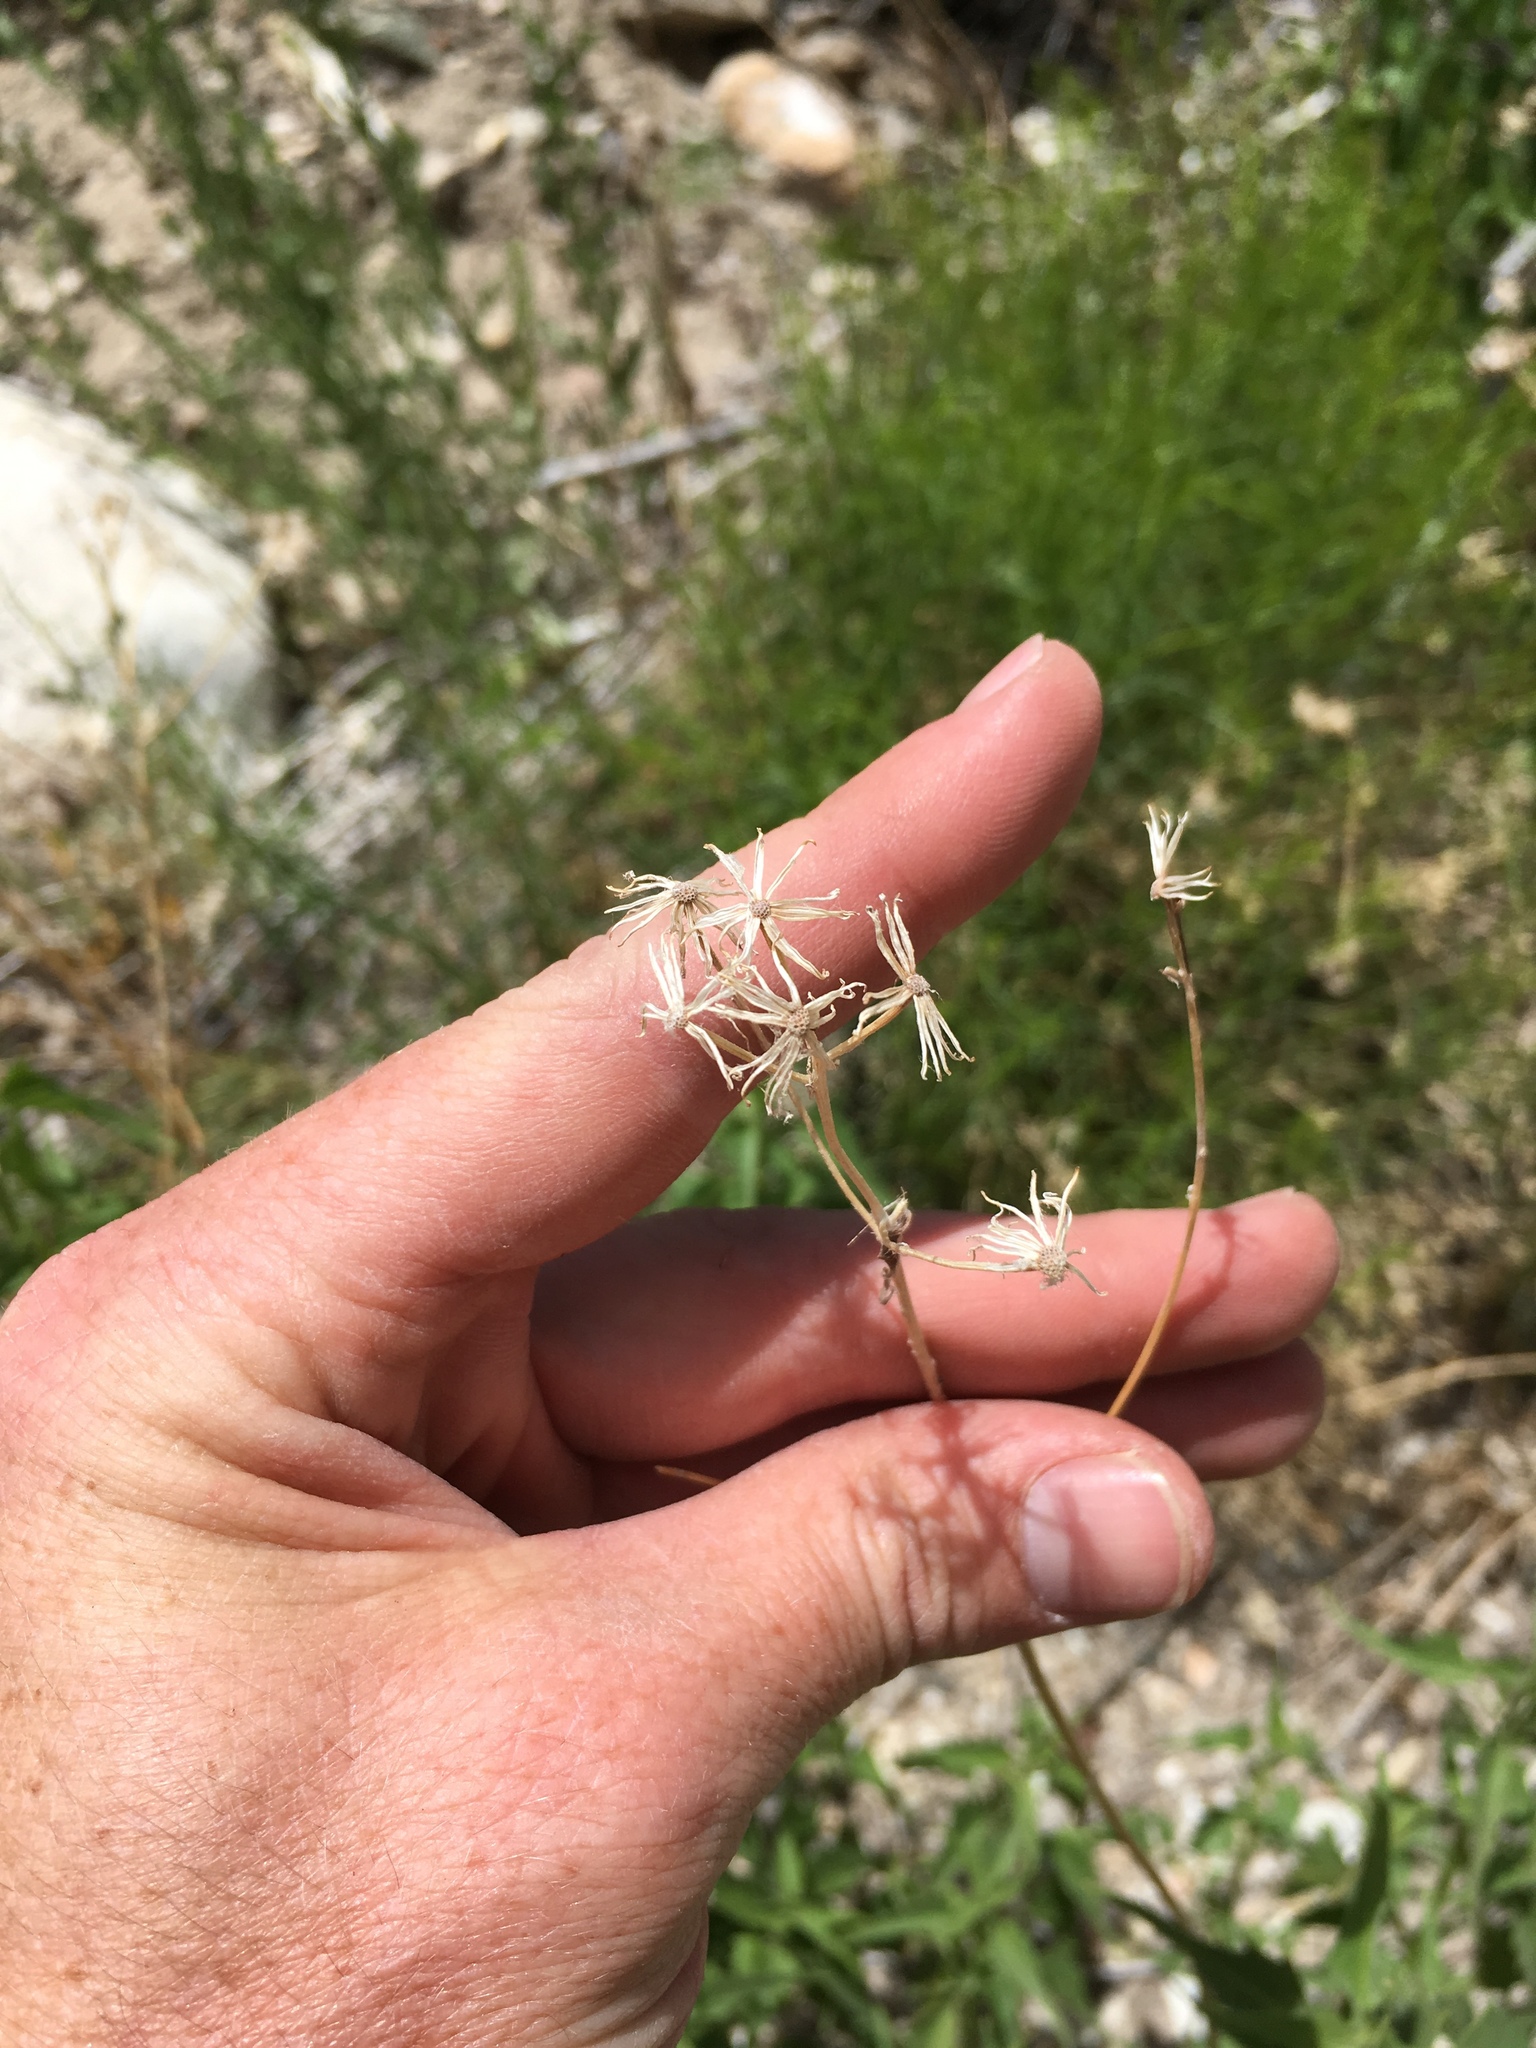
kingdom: Plantae
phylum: Tracheophyta
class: Magnoliopsida
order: Asterales
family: Asteraceae
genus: Pericome
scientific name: Pericome caudata
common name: Taperleaf
